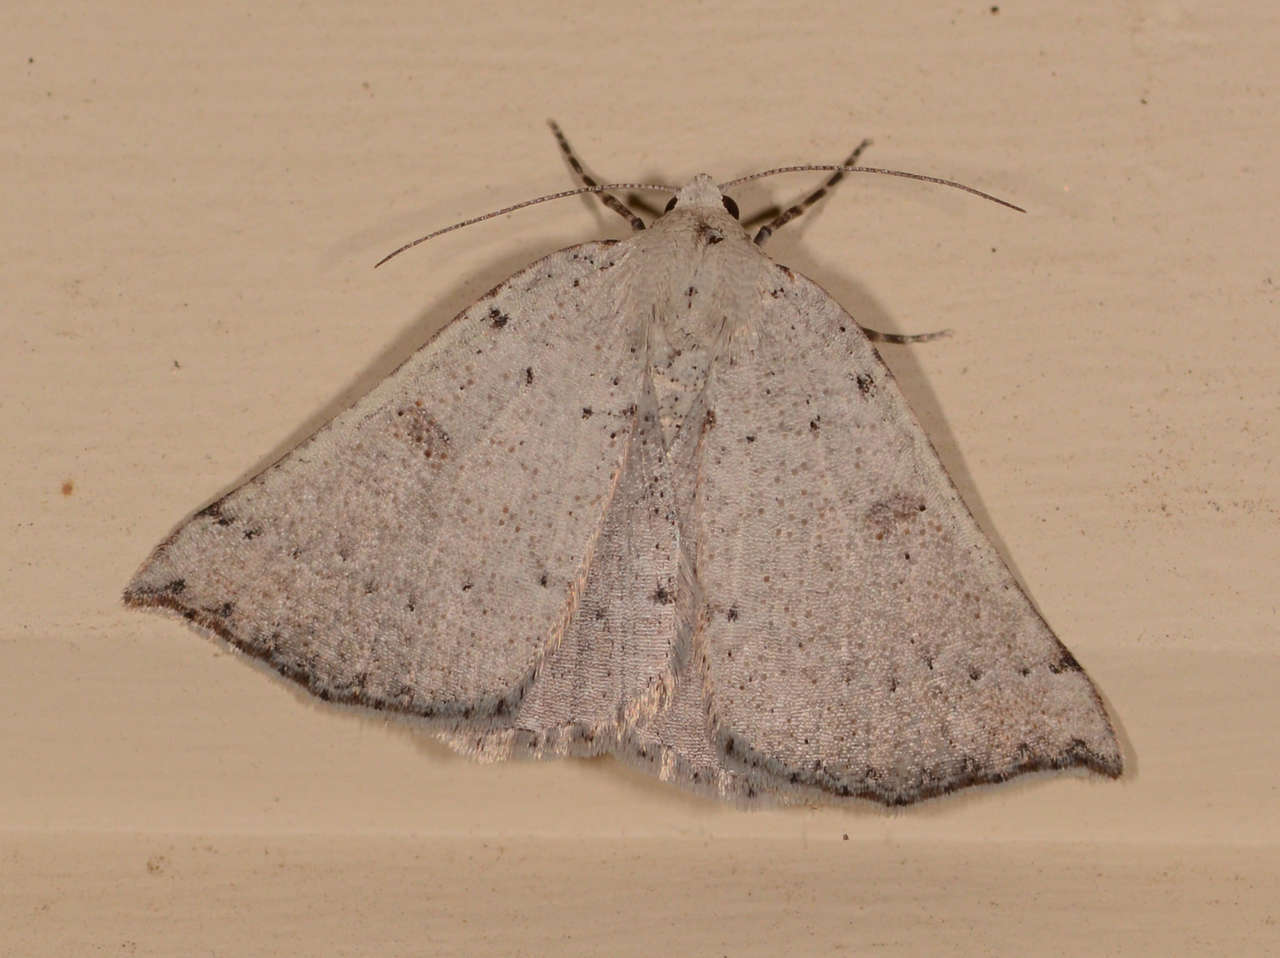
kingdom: Animalia
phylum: Arthropoda
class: Insecta
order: Lepidoptera
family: Geometridae
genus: Amelora
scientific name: Amelora demistis
